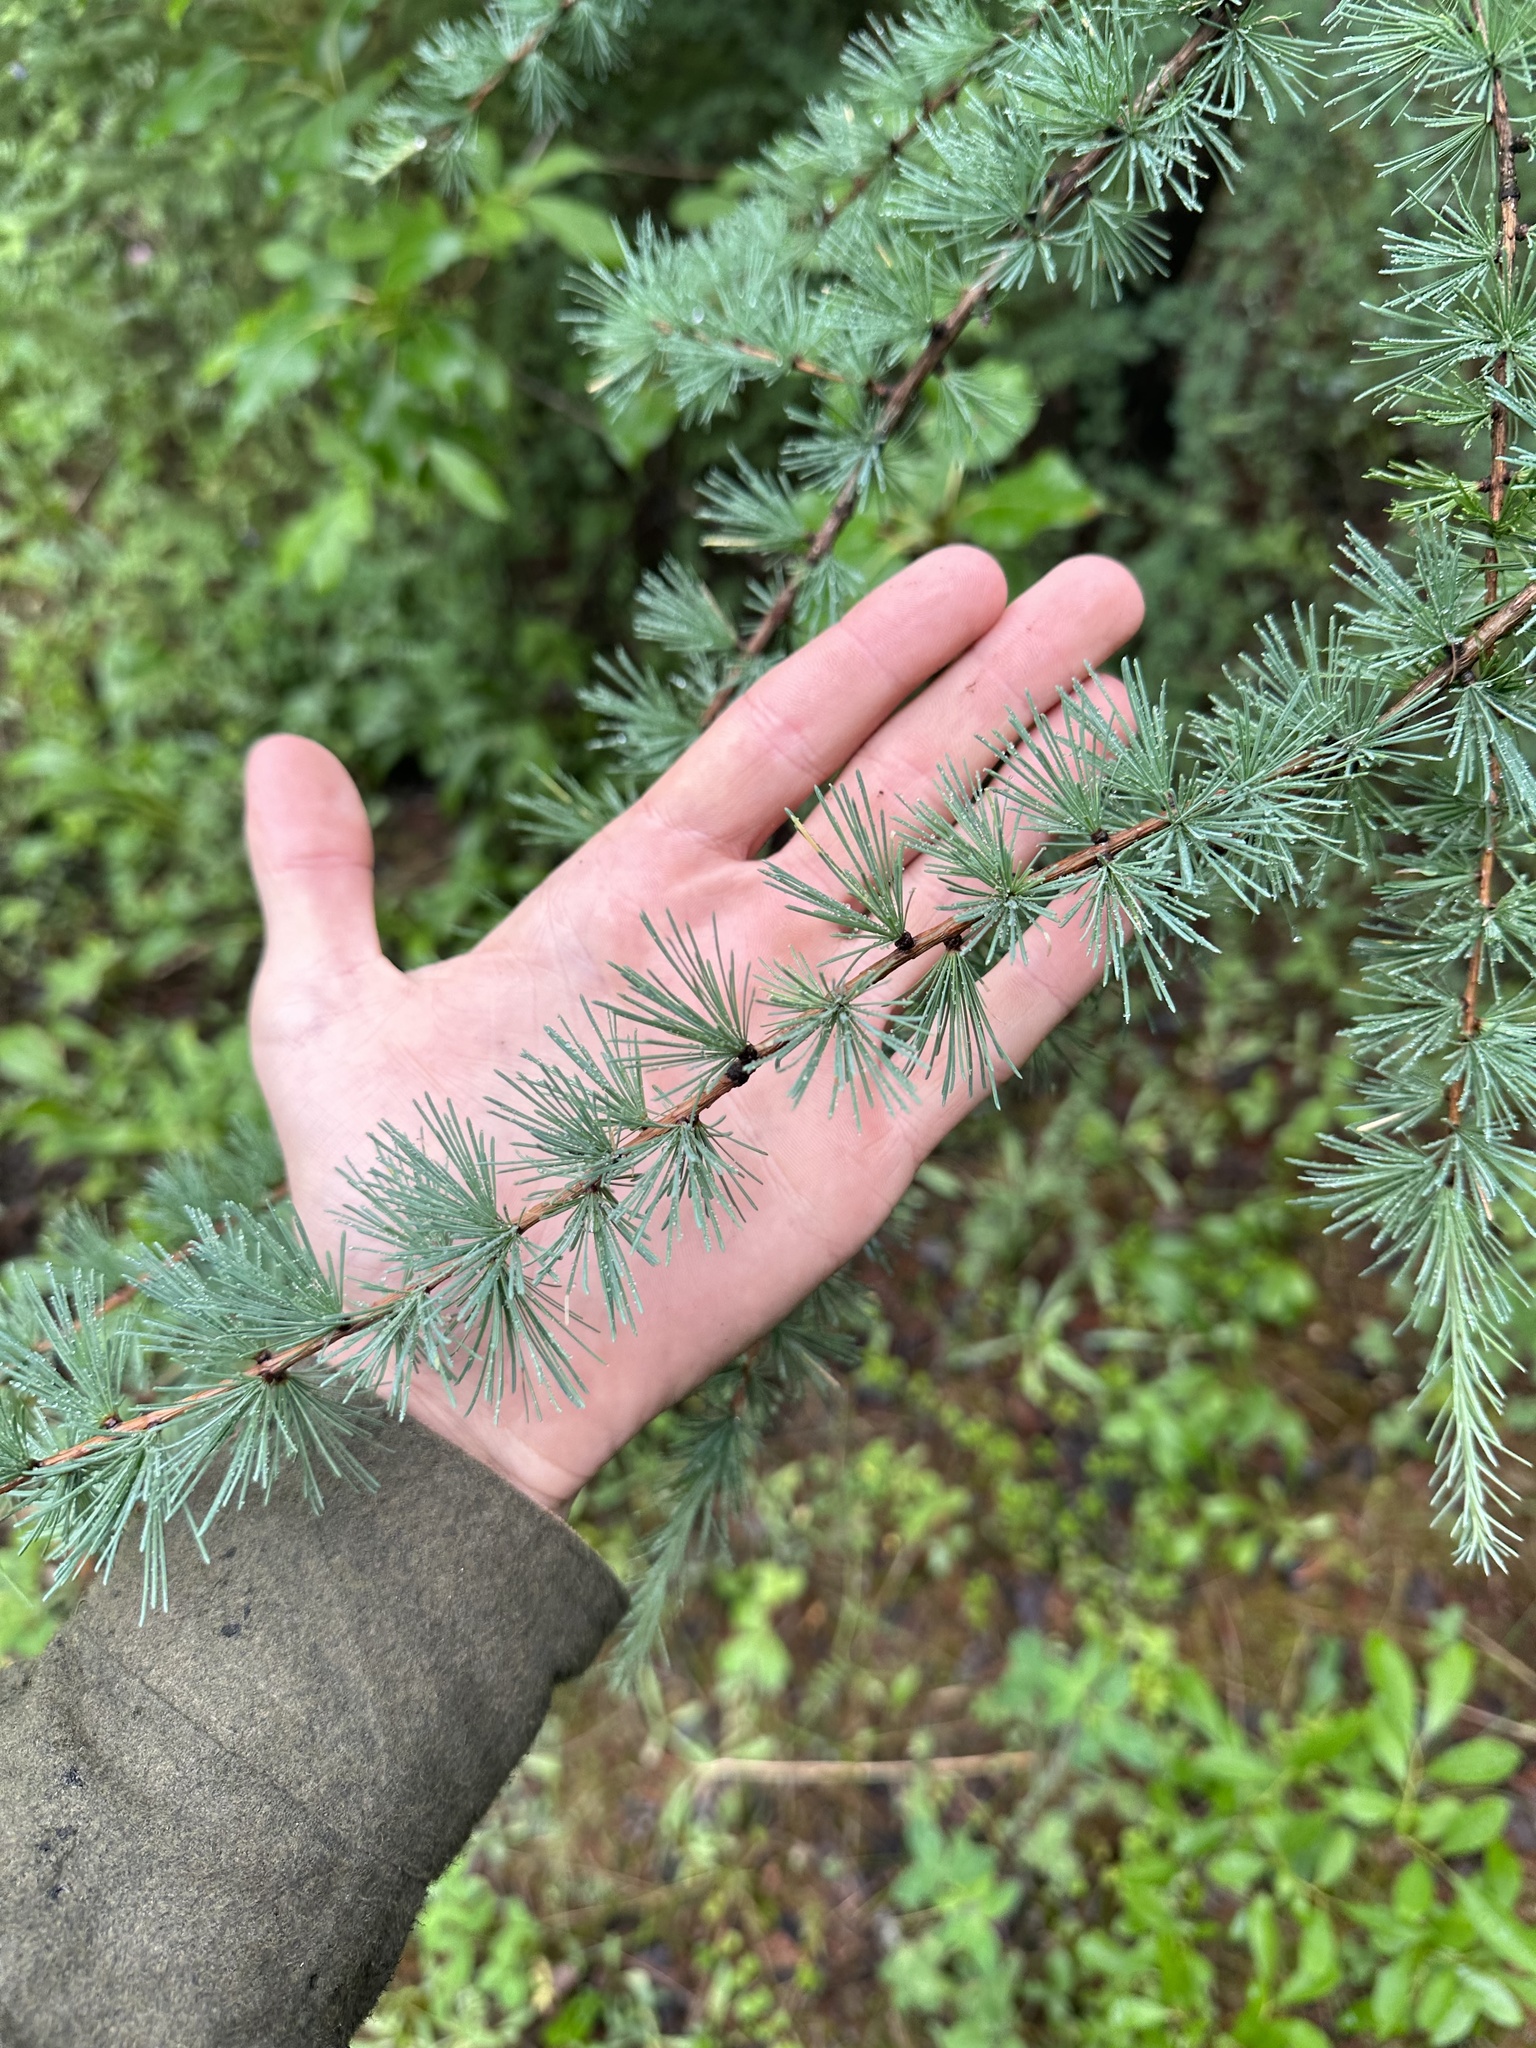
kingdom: Plantae
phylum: Tracheophyta
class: Pinopsida
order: Pinales
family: Pinaceae
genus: Larix
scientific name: Larix laricina
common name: American larch
